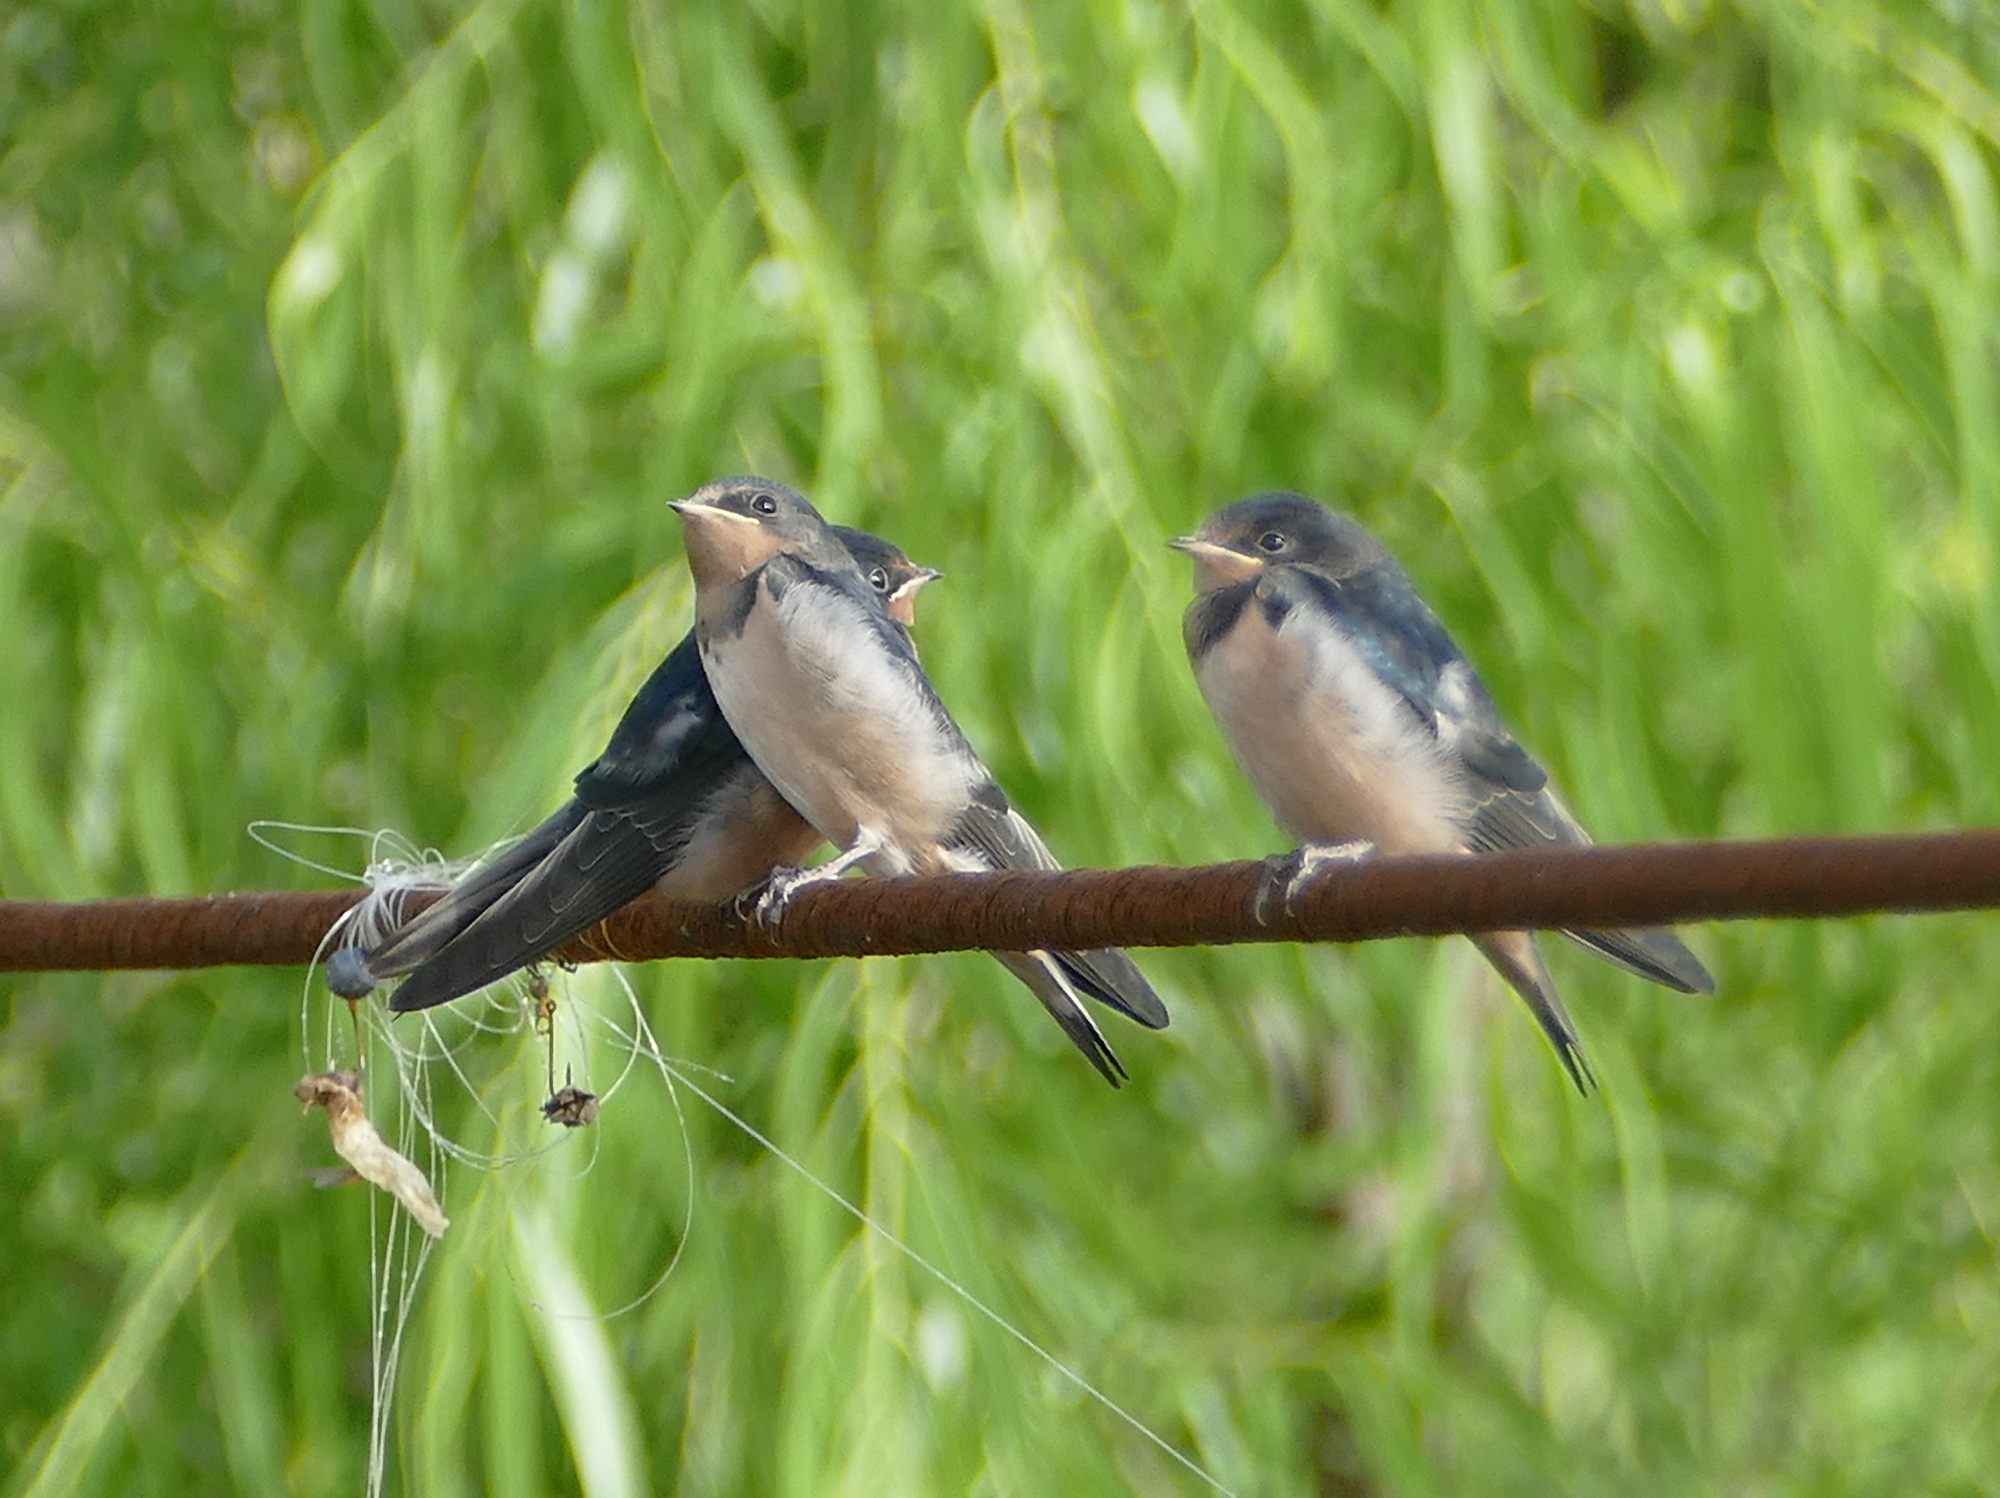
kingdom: Animalia
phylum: Chordata
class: Aves
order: Passeriformes
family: Hirundinidae
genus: Hirundo
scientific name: Hirundo rustica
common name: Barn swallow
